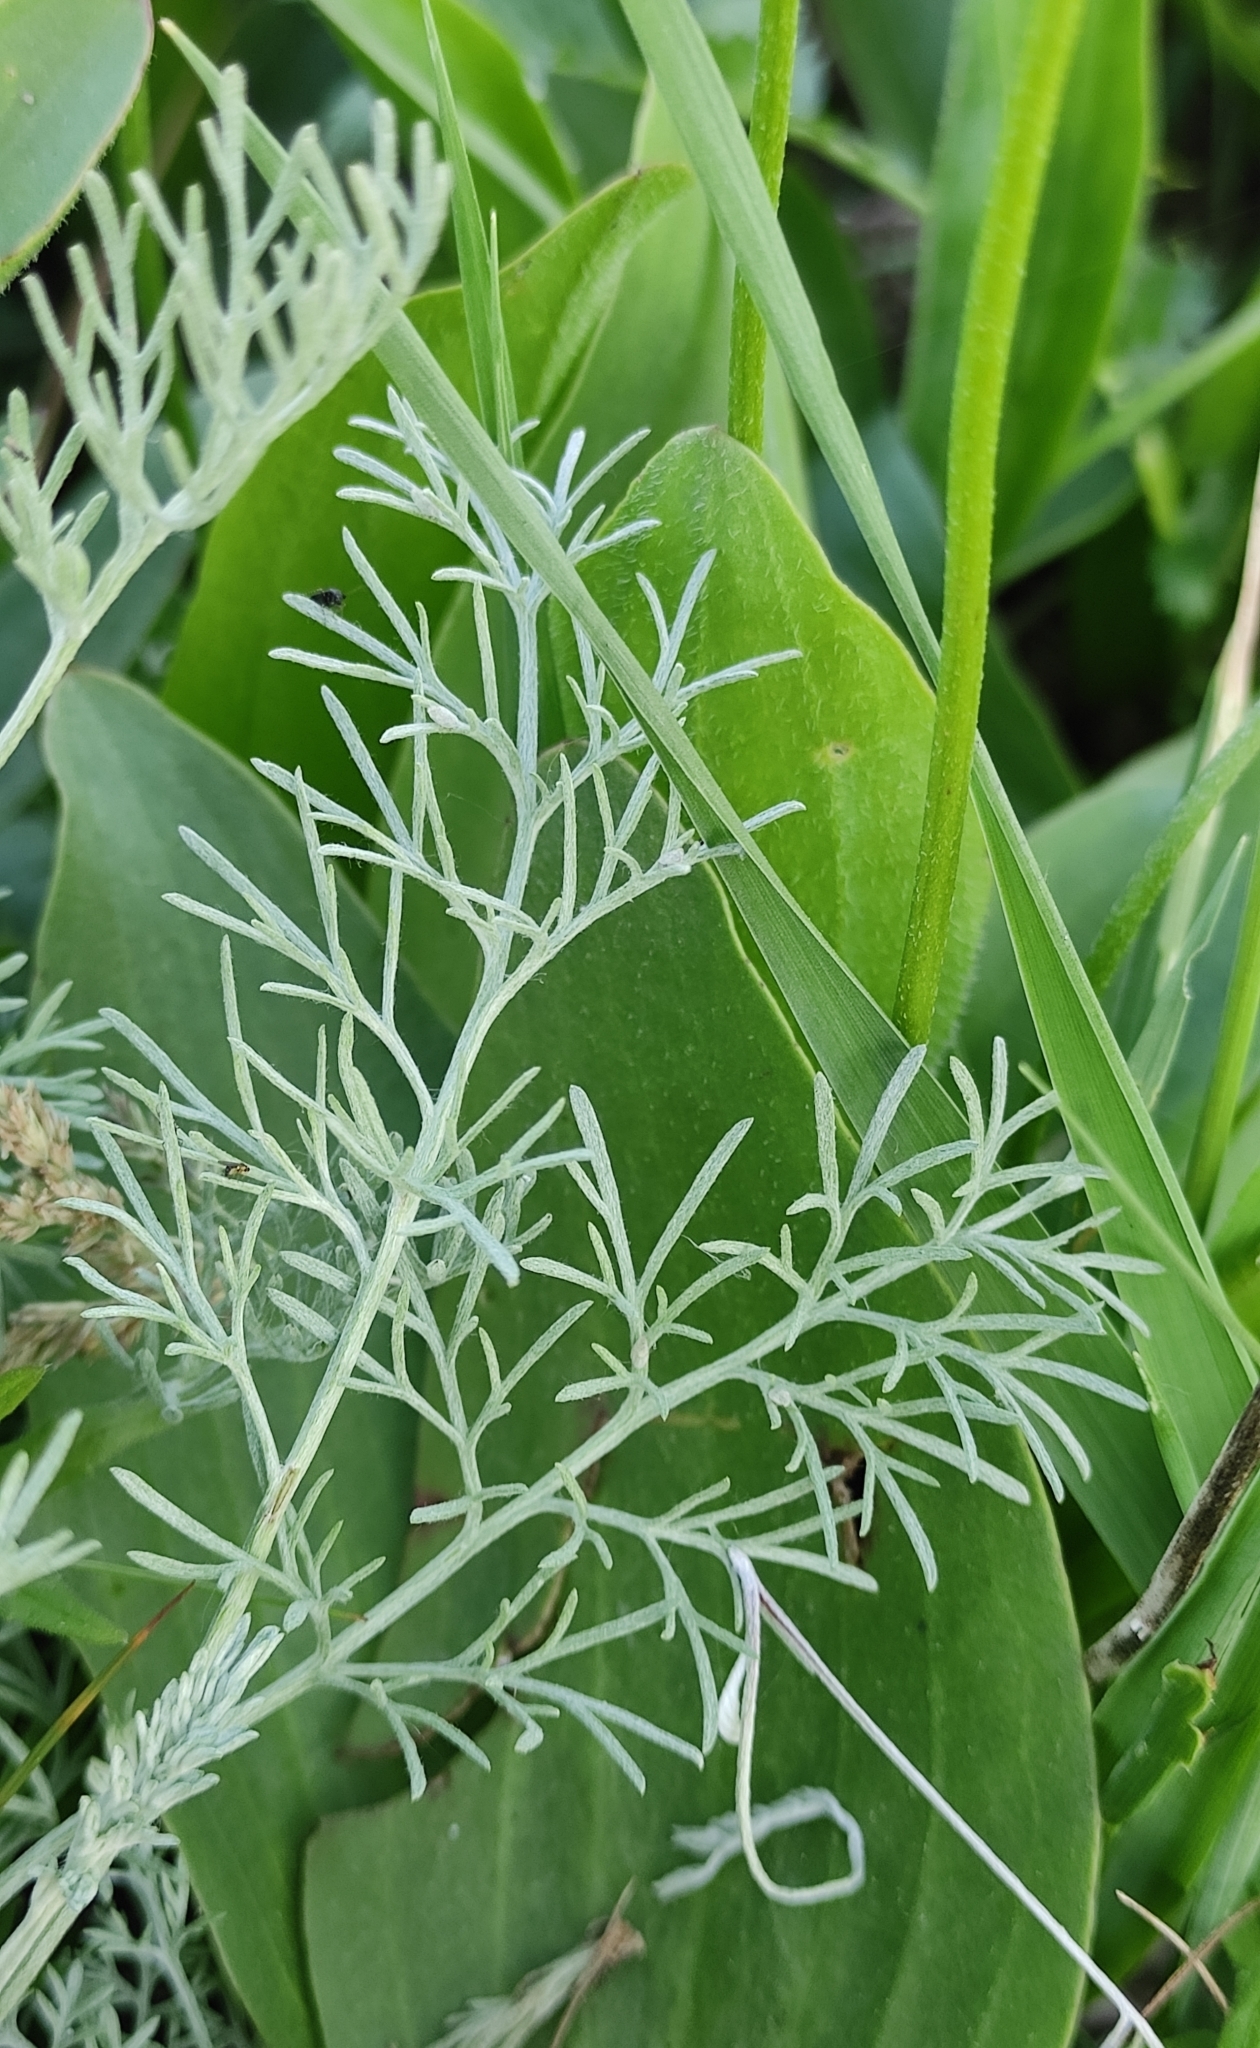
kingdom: Plantae
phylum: Tracheophyta
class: Magnoliopsida
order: Asterales
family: Asteraceae
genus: Artemisia
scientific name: Artemisia nitrosa
